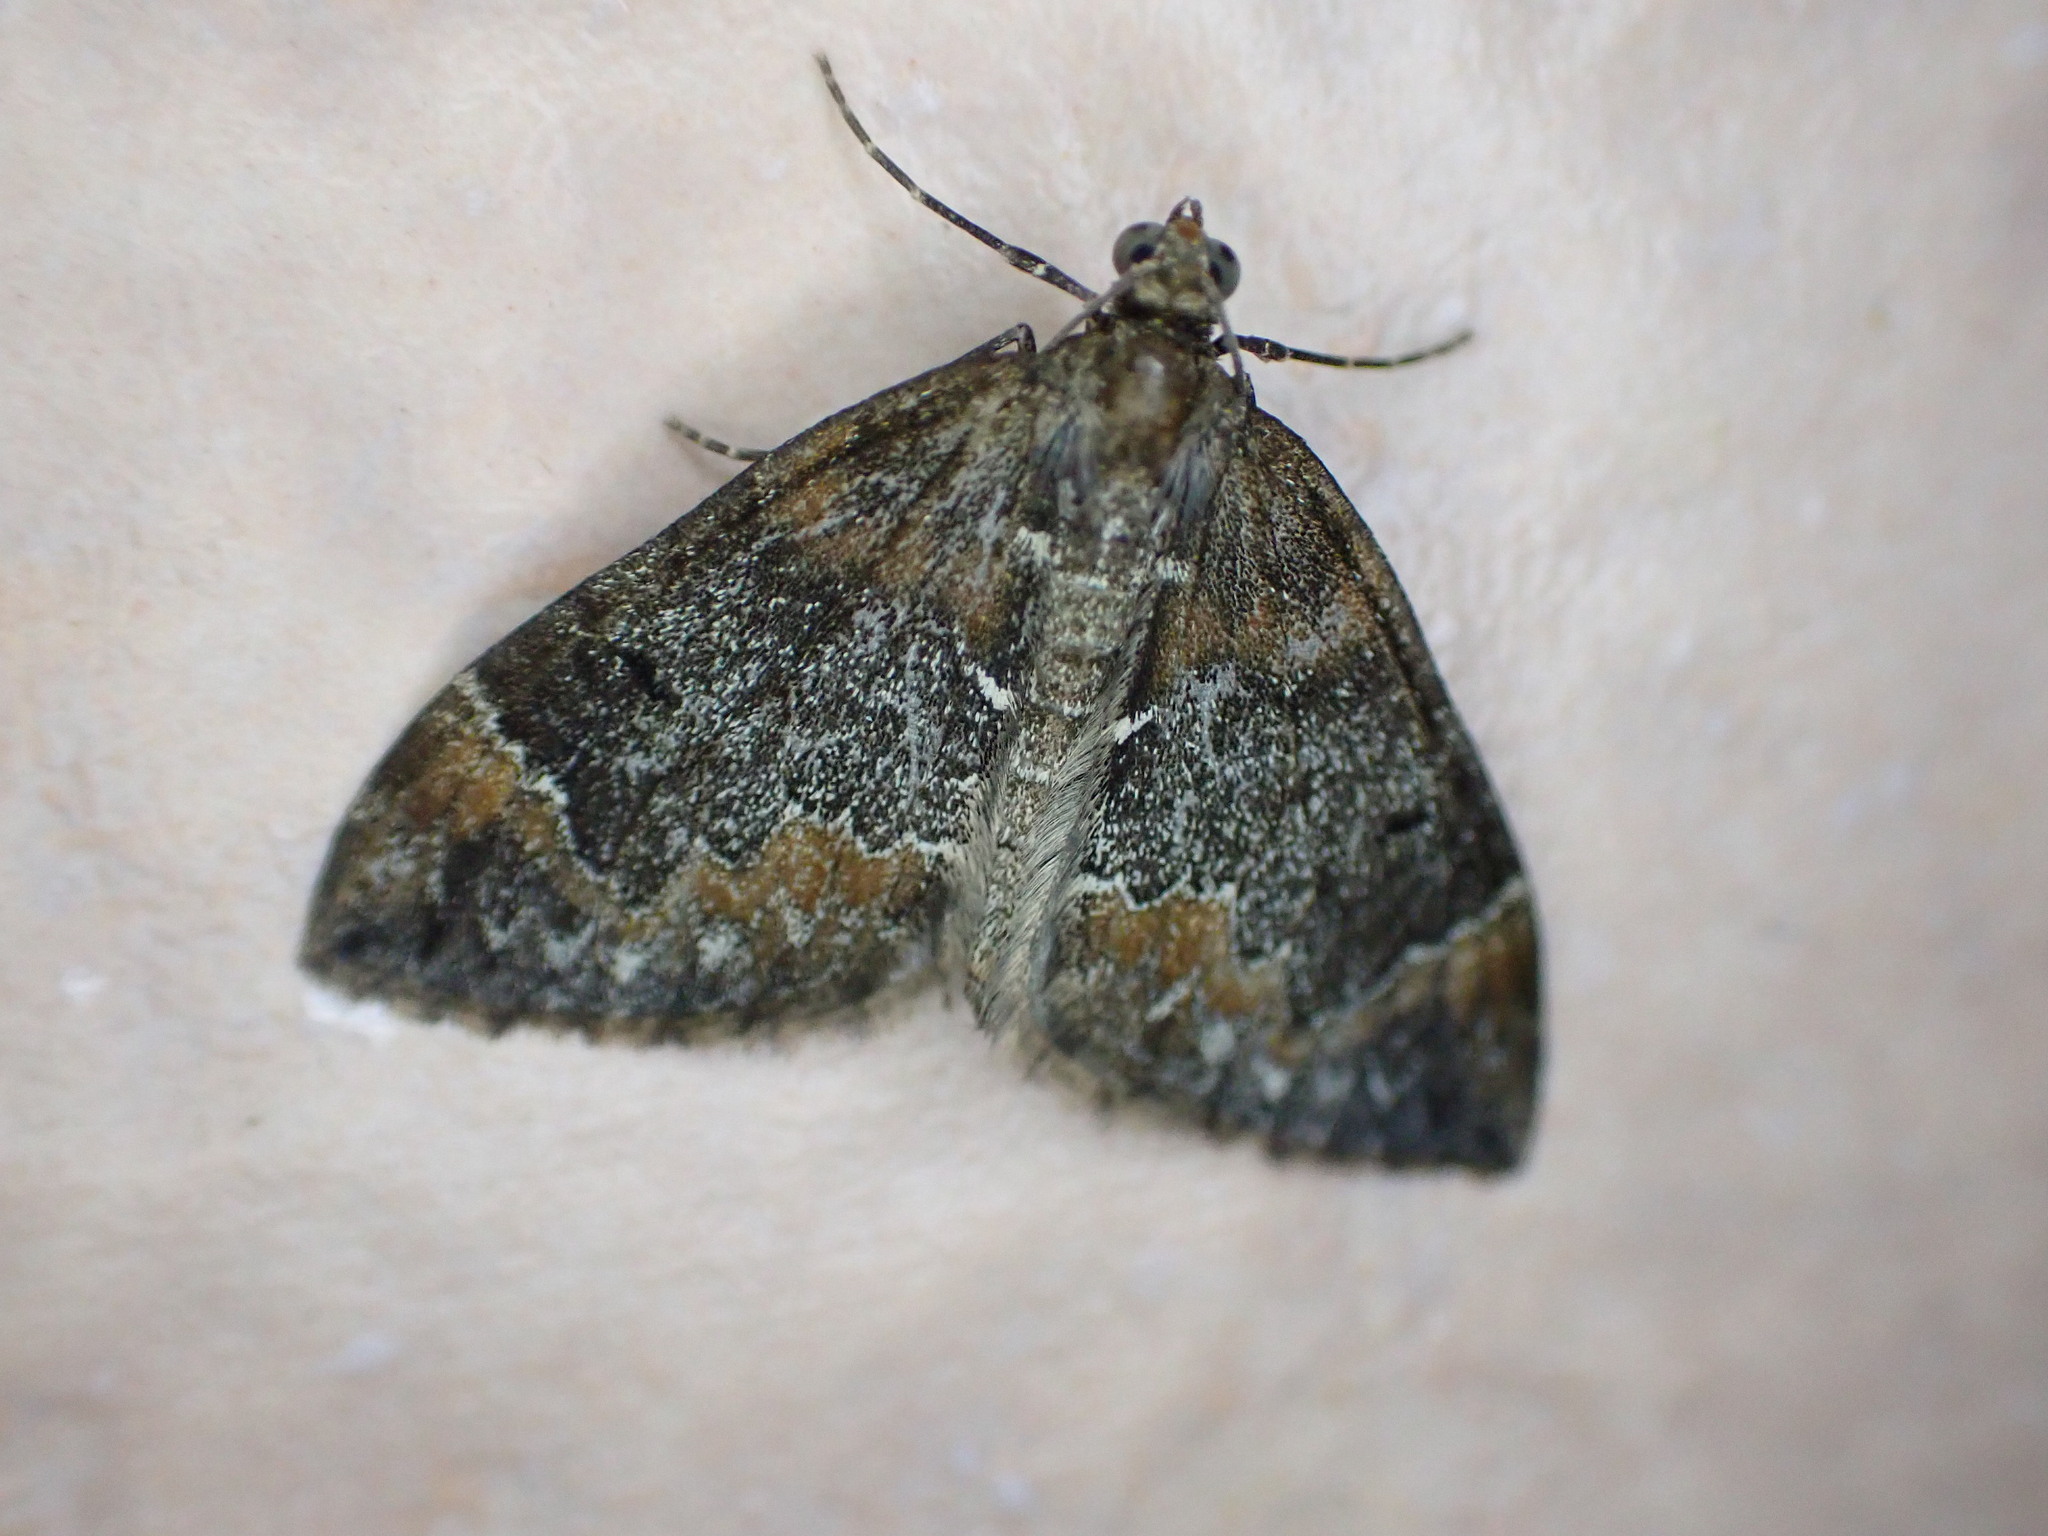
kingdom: Animalia
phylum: Arthropoda
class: Insecta
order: Lepidoptera
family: Geometridae
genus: Dysstroma
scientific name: Dysstroma truncata
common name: Common marbled carpet
